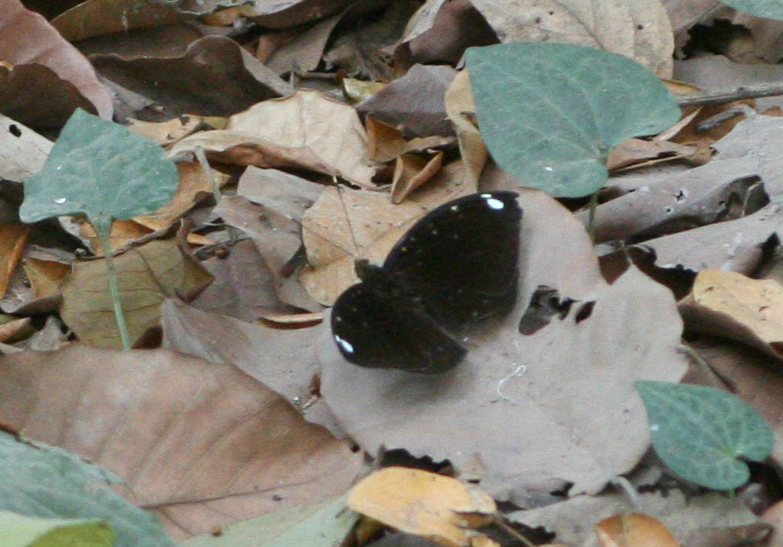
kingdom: Animalia
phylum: Arthropoda
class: Insecta
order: Lepidoptera
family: Nymphalidae
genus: Lexias
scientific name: Lexias
